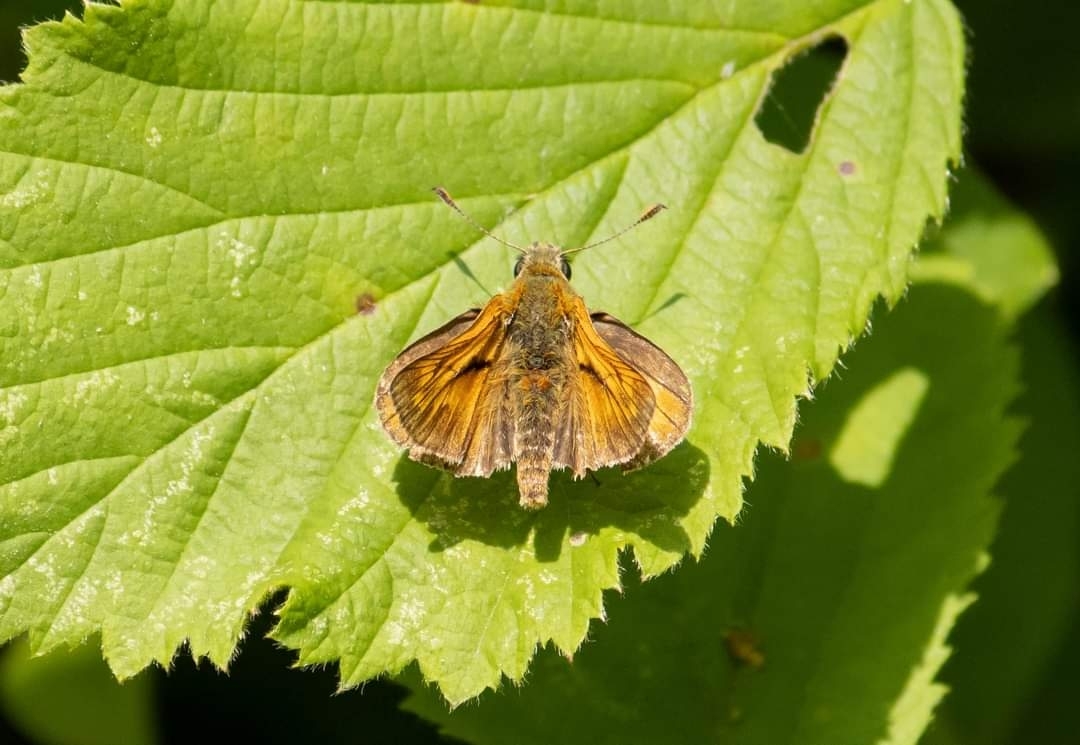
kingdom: Animalia
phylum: Arthropoda
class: Insecta
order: Lepidoptera
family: Hesperiidae
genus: Ochlodes
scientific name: Ochlodes venata
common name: Large skipper
